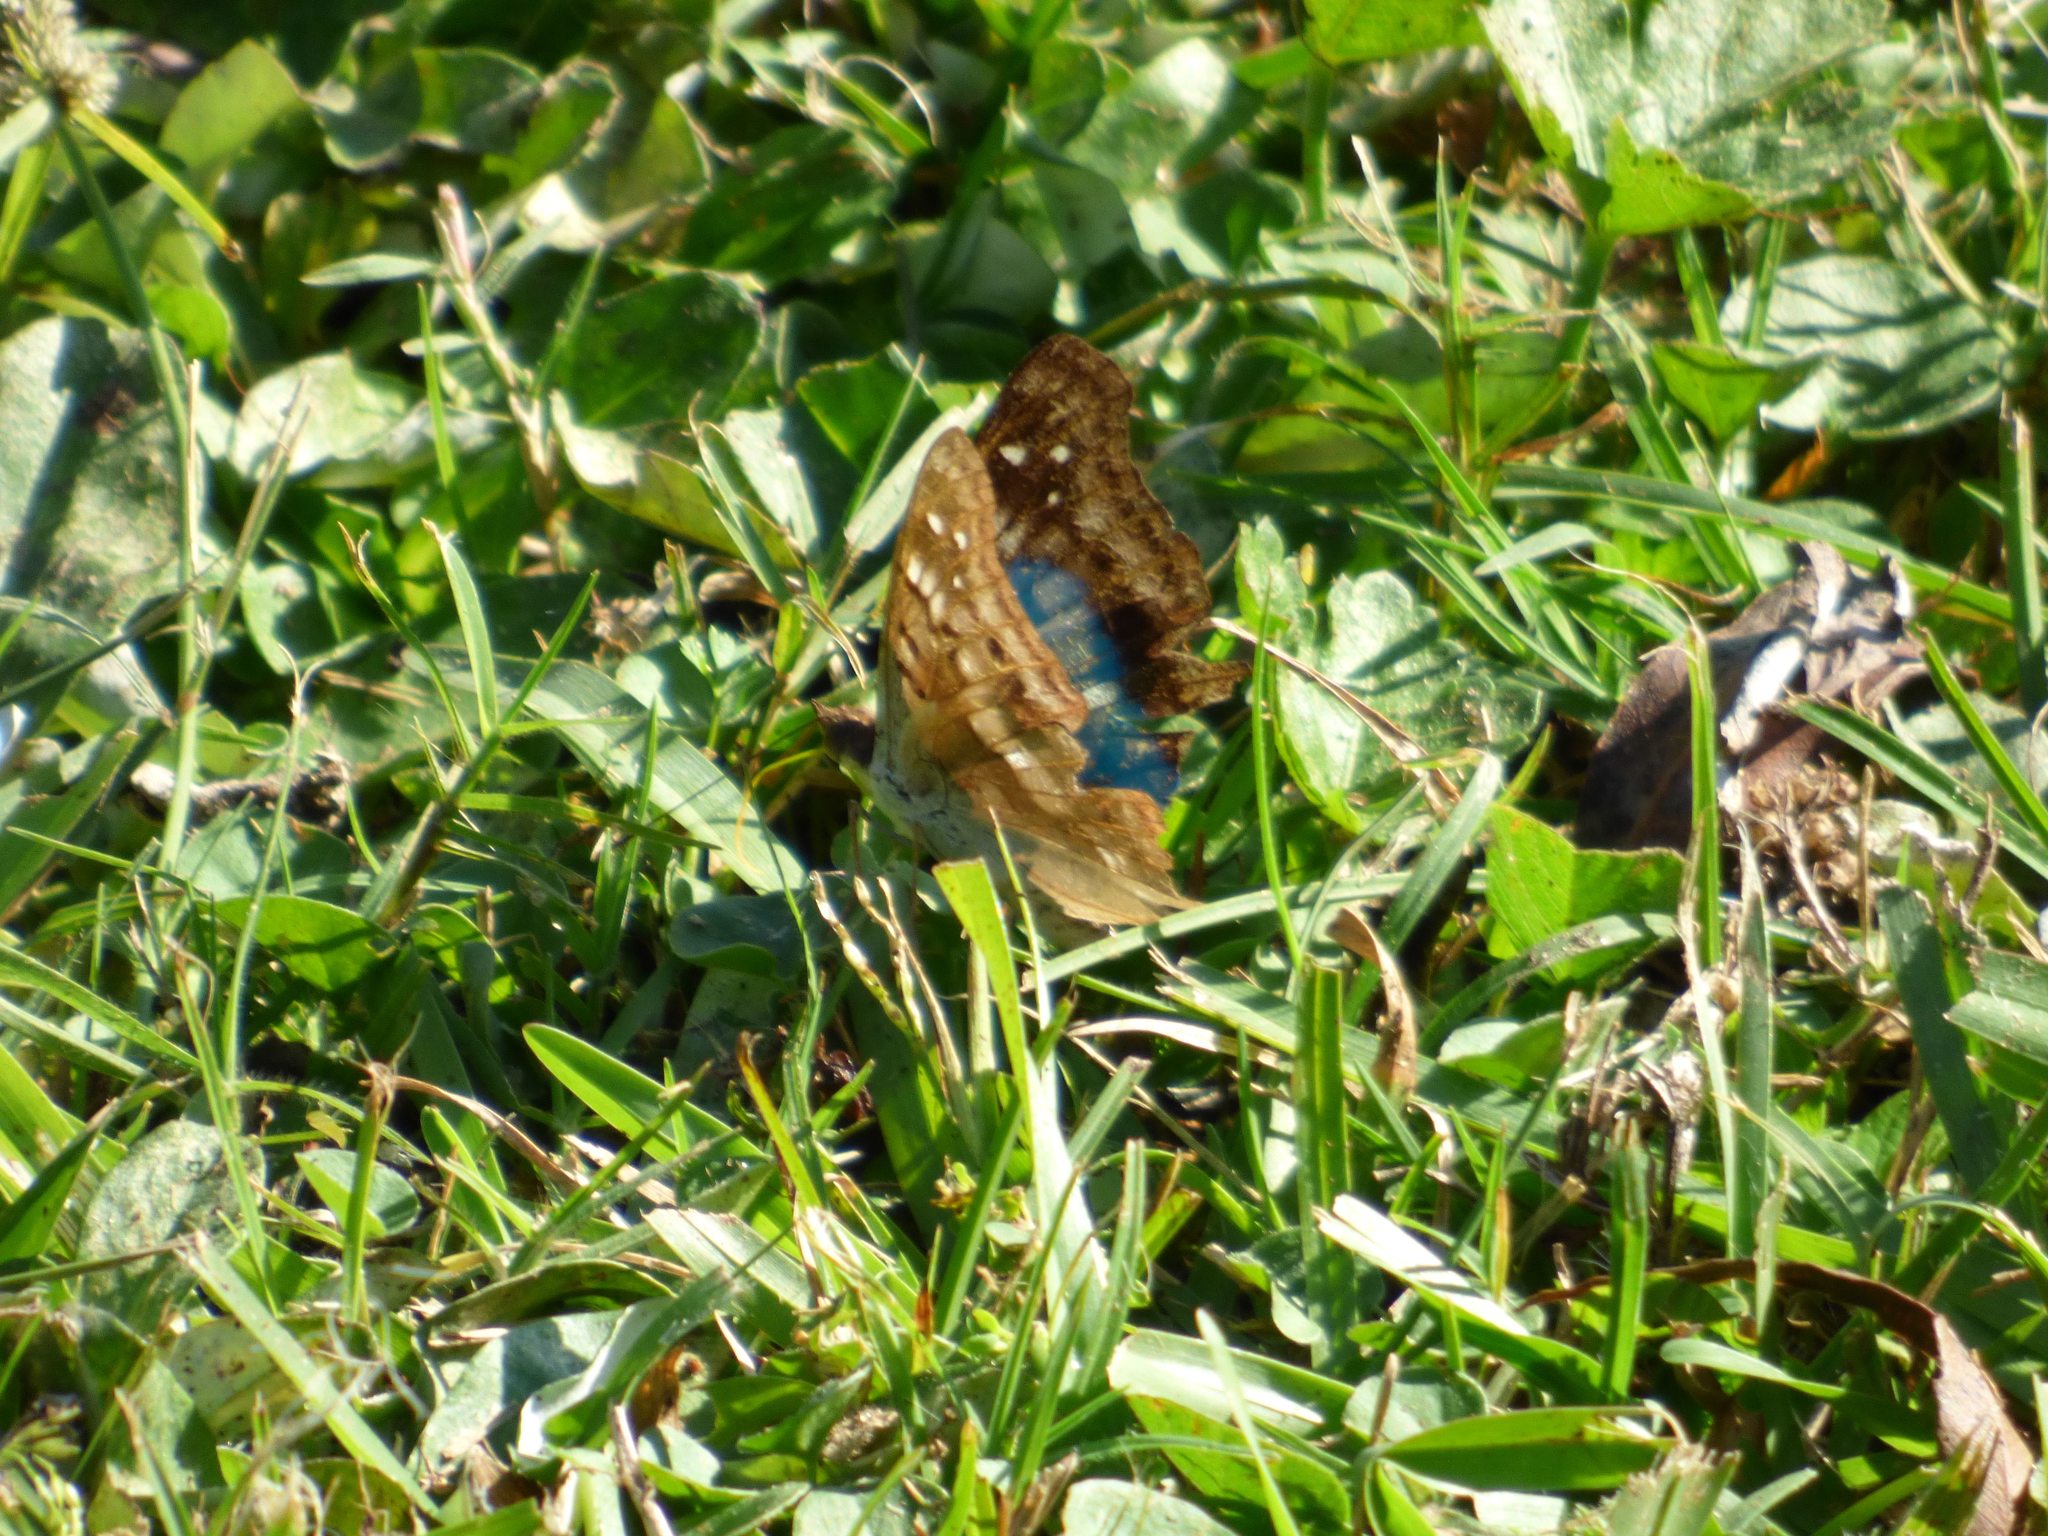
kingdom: Animalia
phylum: Arthropoda
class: Insecta
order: Lepidoptera
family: Nymphalidae
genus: Doxocopa
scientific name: Doxocopa laurentia
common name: Turquoise emperor
